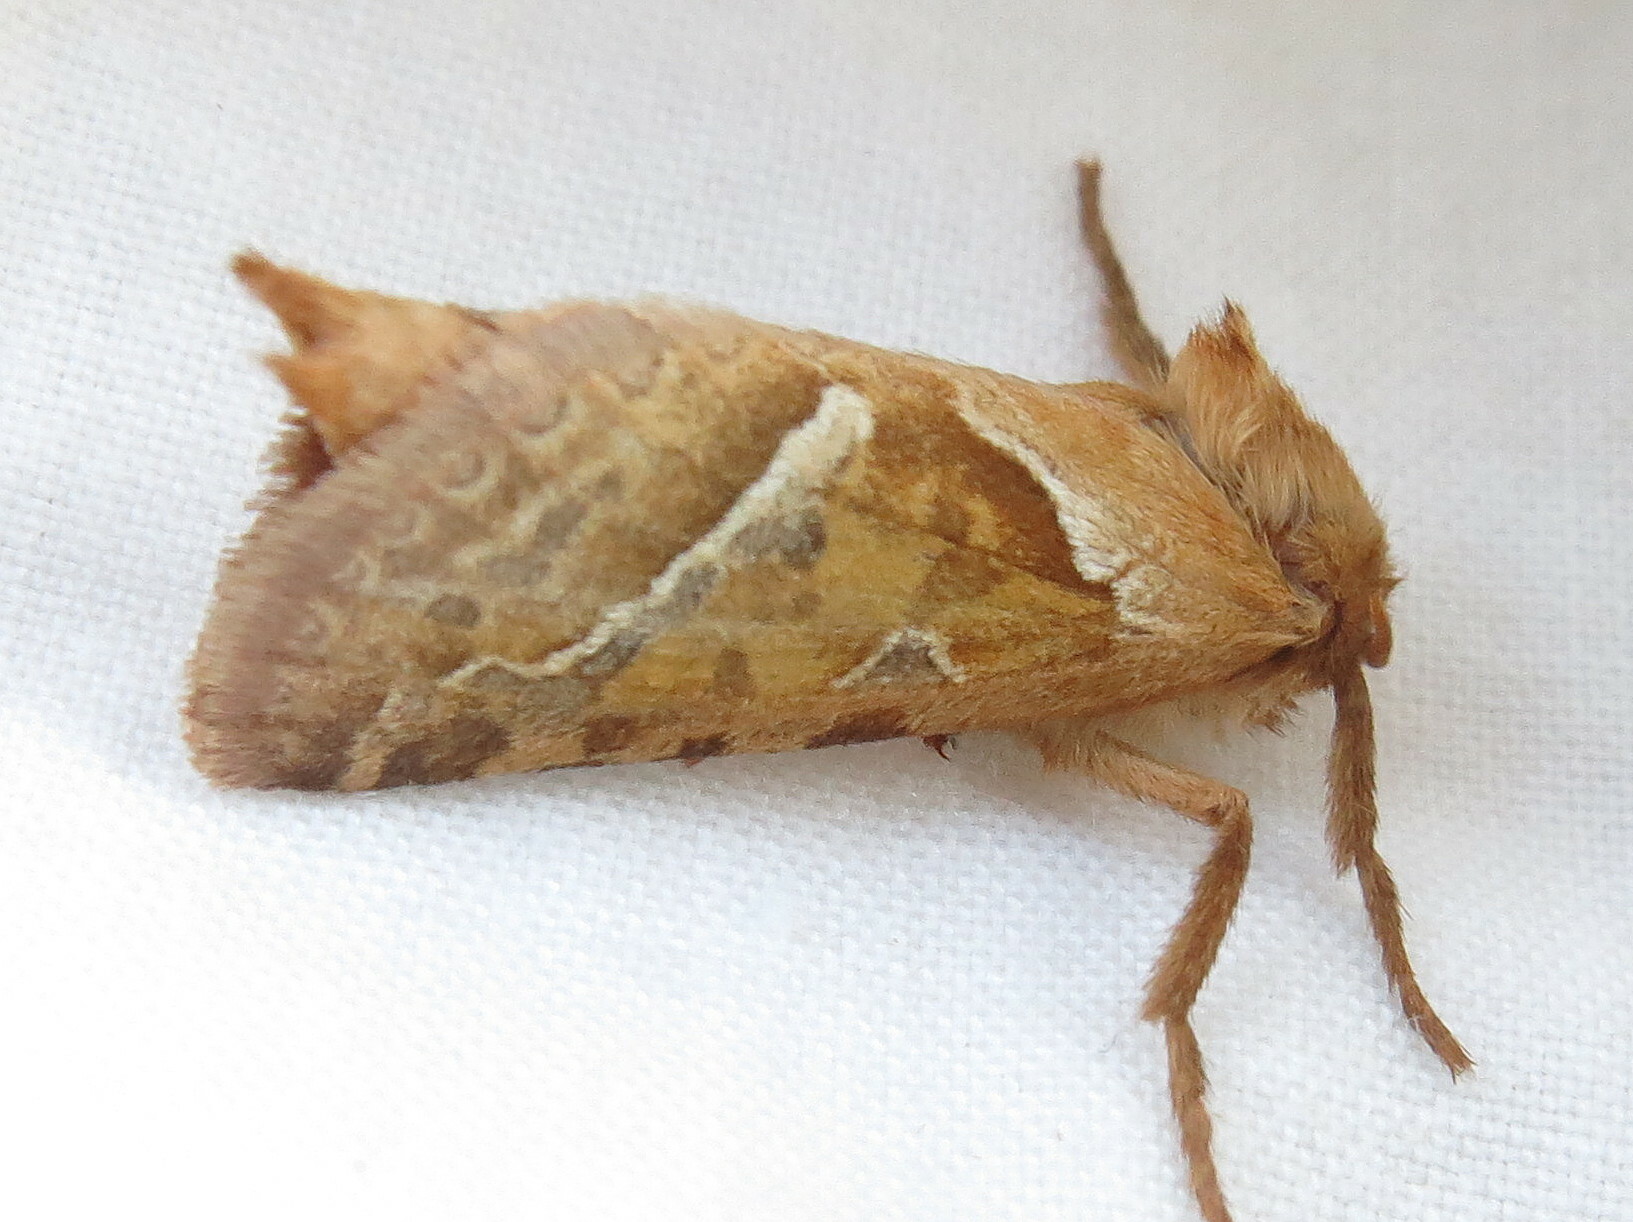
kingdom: Animalia
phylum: Arthropoda
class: Insecta
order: Lepidoptera
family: Hepialidae
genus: Triodia
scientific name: Triodia sylvina
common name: Orange swift
